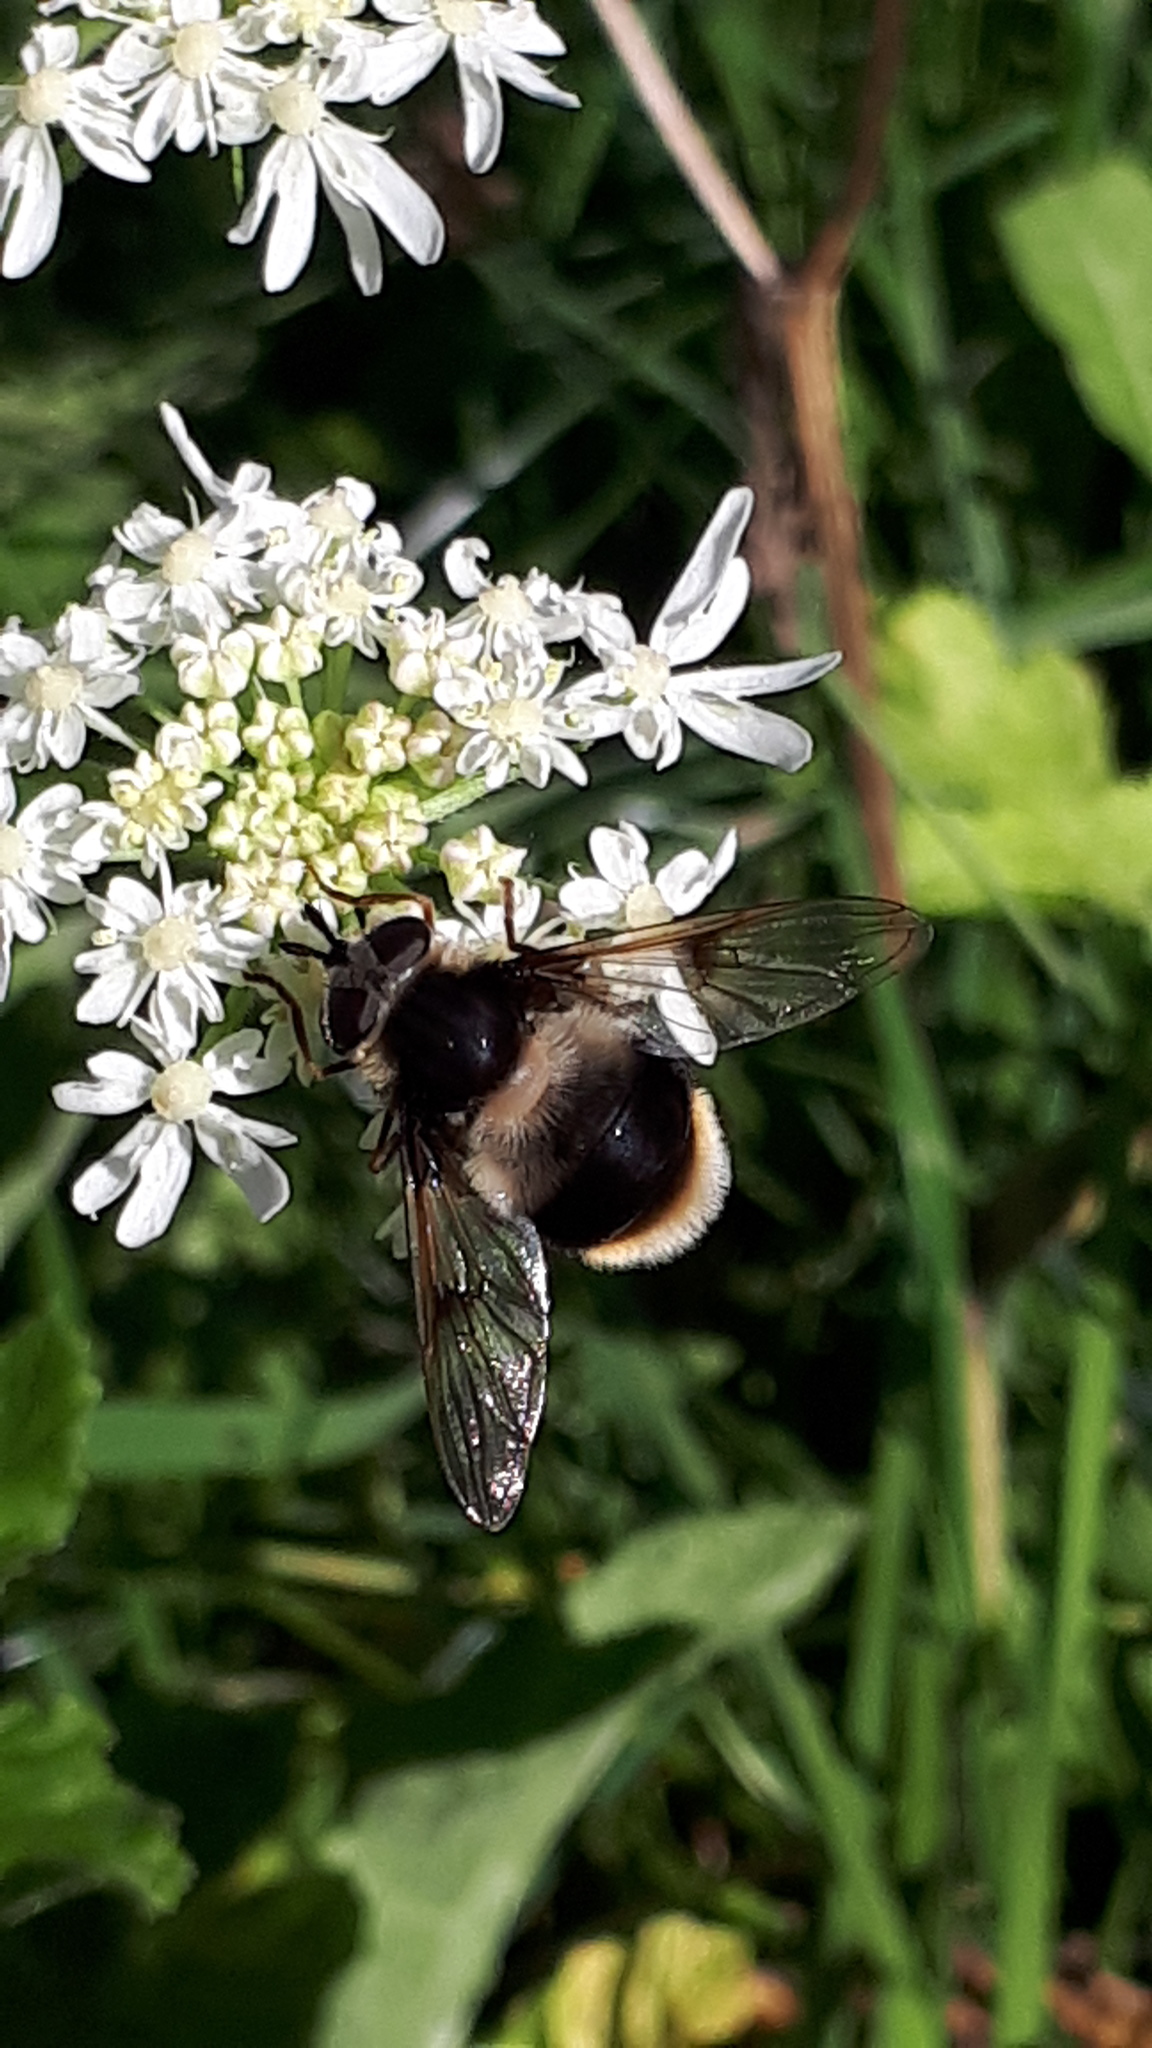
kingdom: Animalia
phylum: Arthropoda
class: Insecta
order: Diptera
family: Syrphidae
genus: Eriozona
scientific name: Eriozona syrphoides
